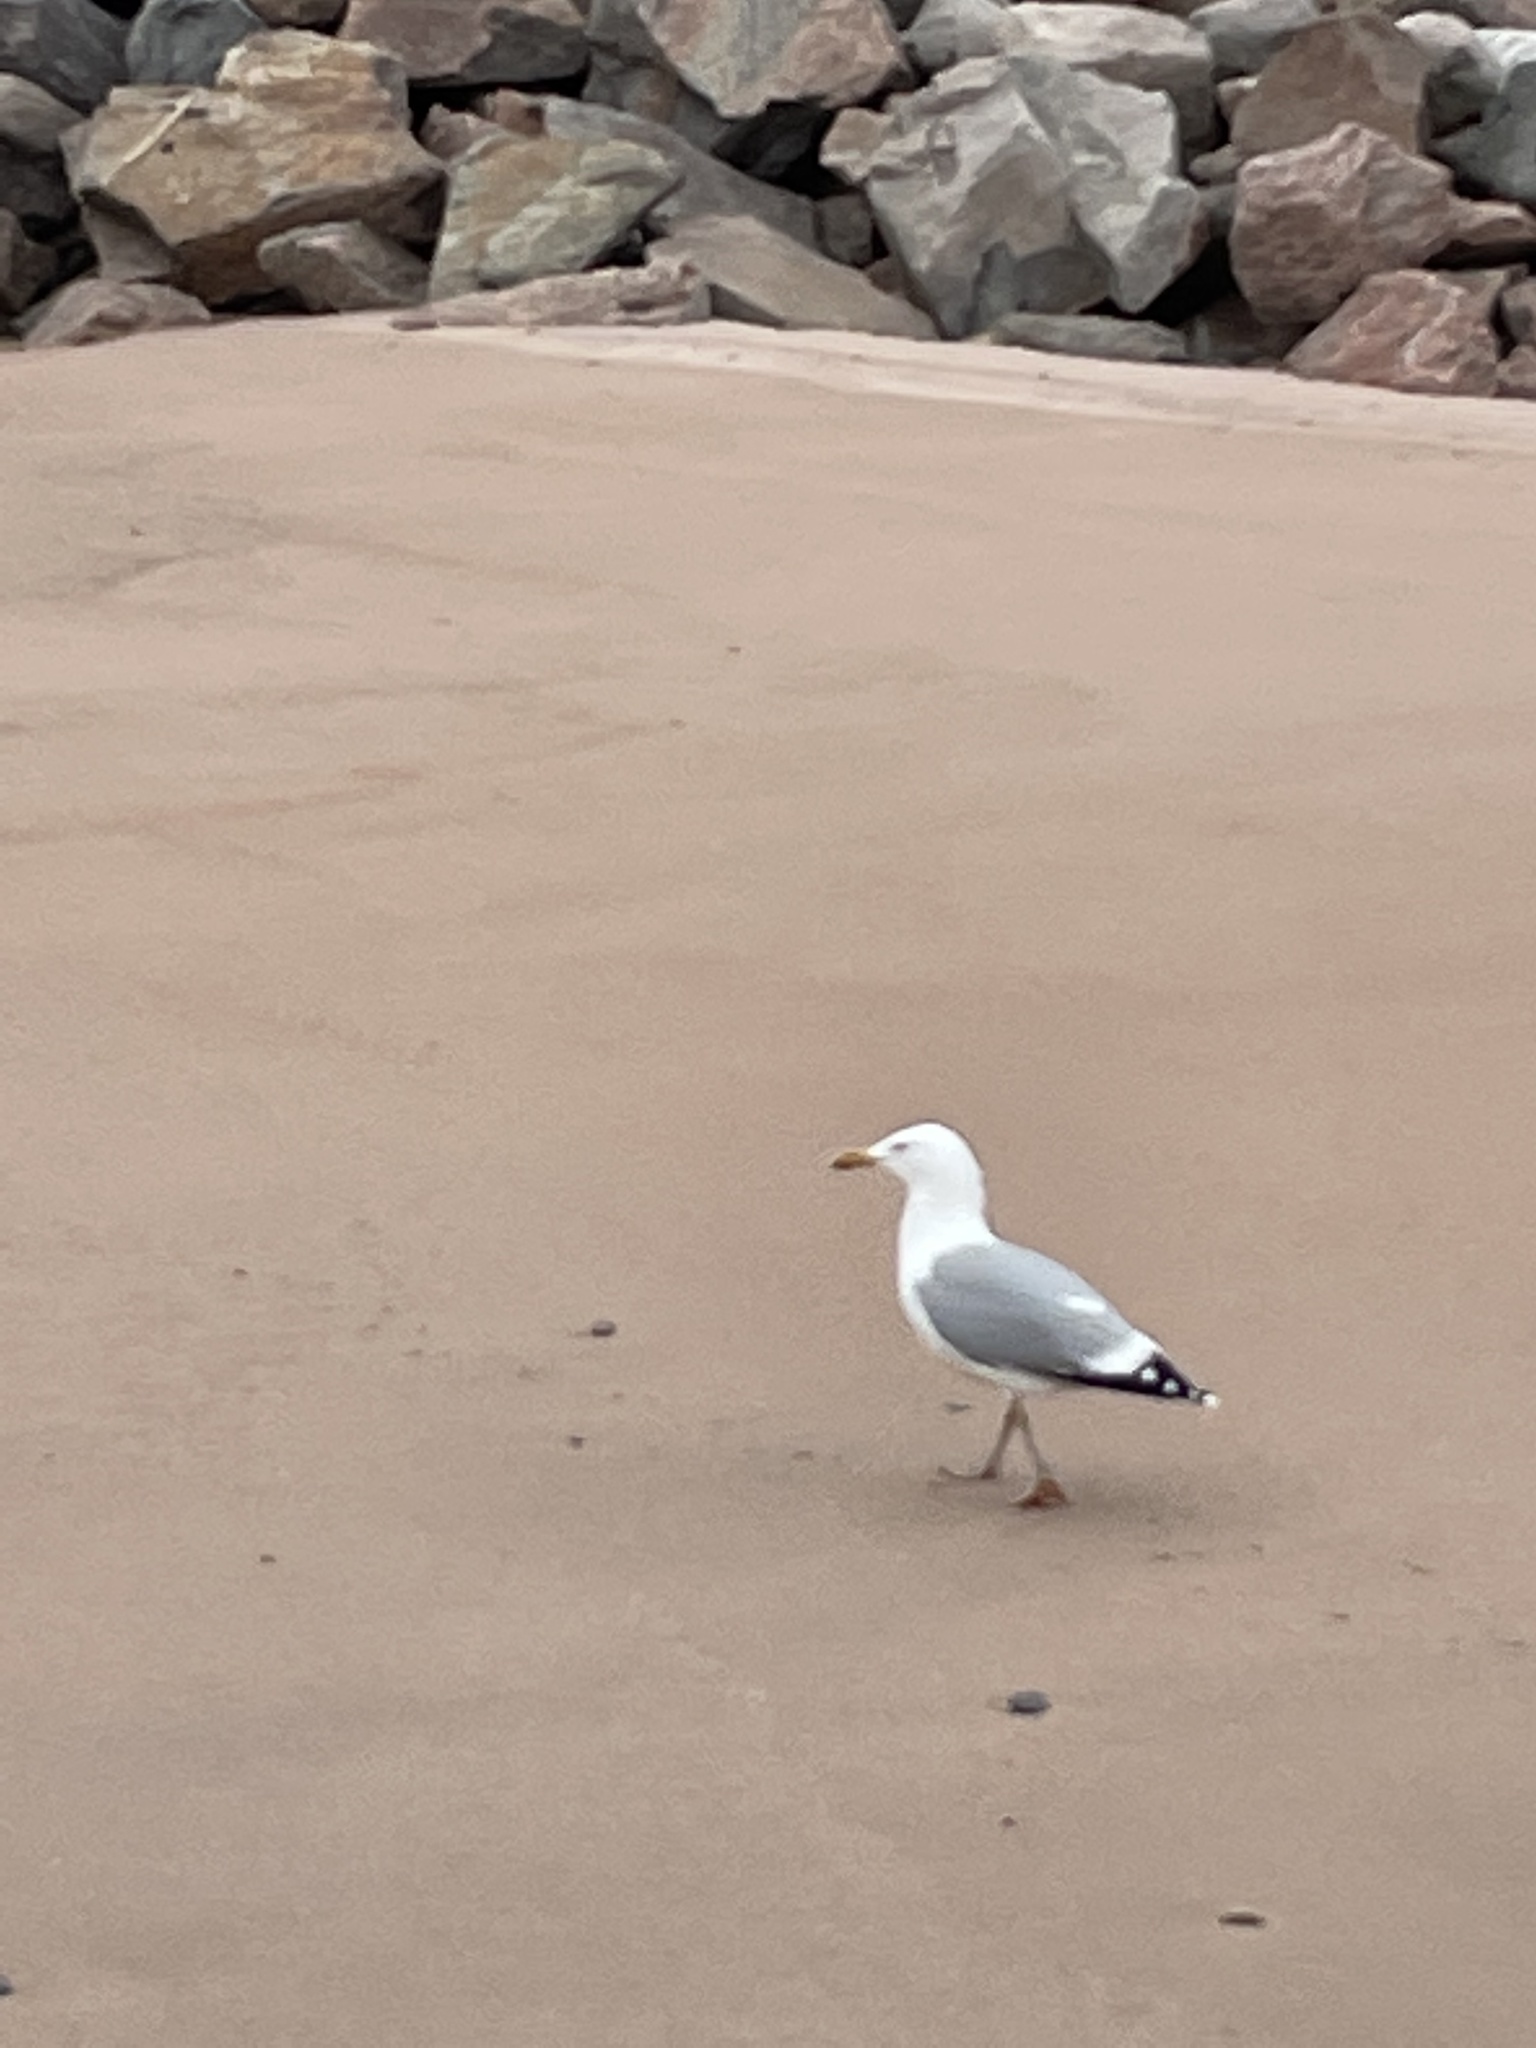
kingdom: Animalia
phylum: Chordata
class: Aves
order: Charadriiformes
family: Laridae
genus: Larus
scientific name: Larus argentatus
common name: Herring gull
